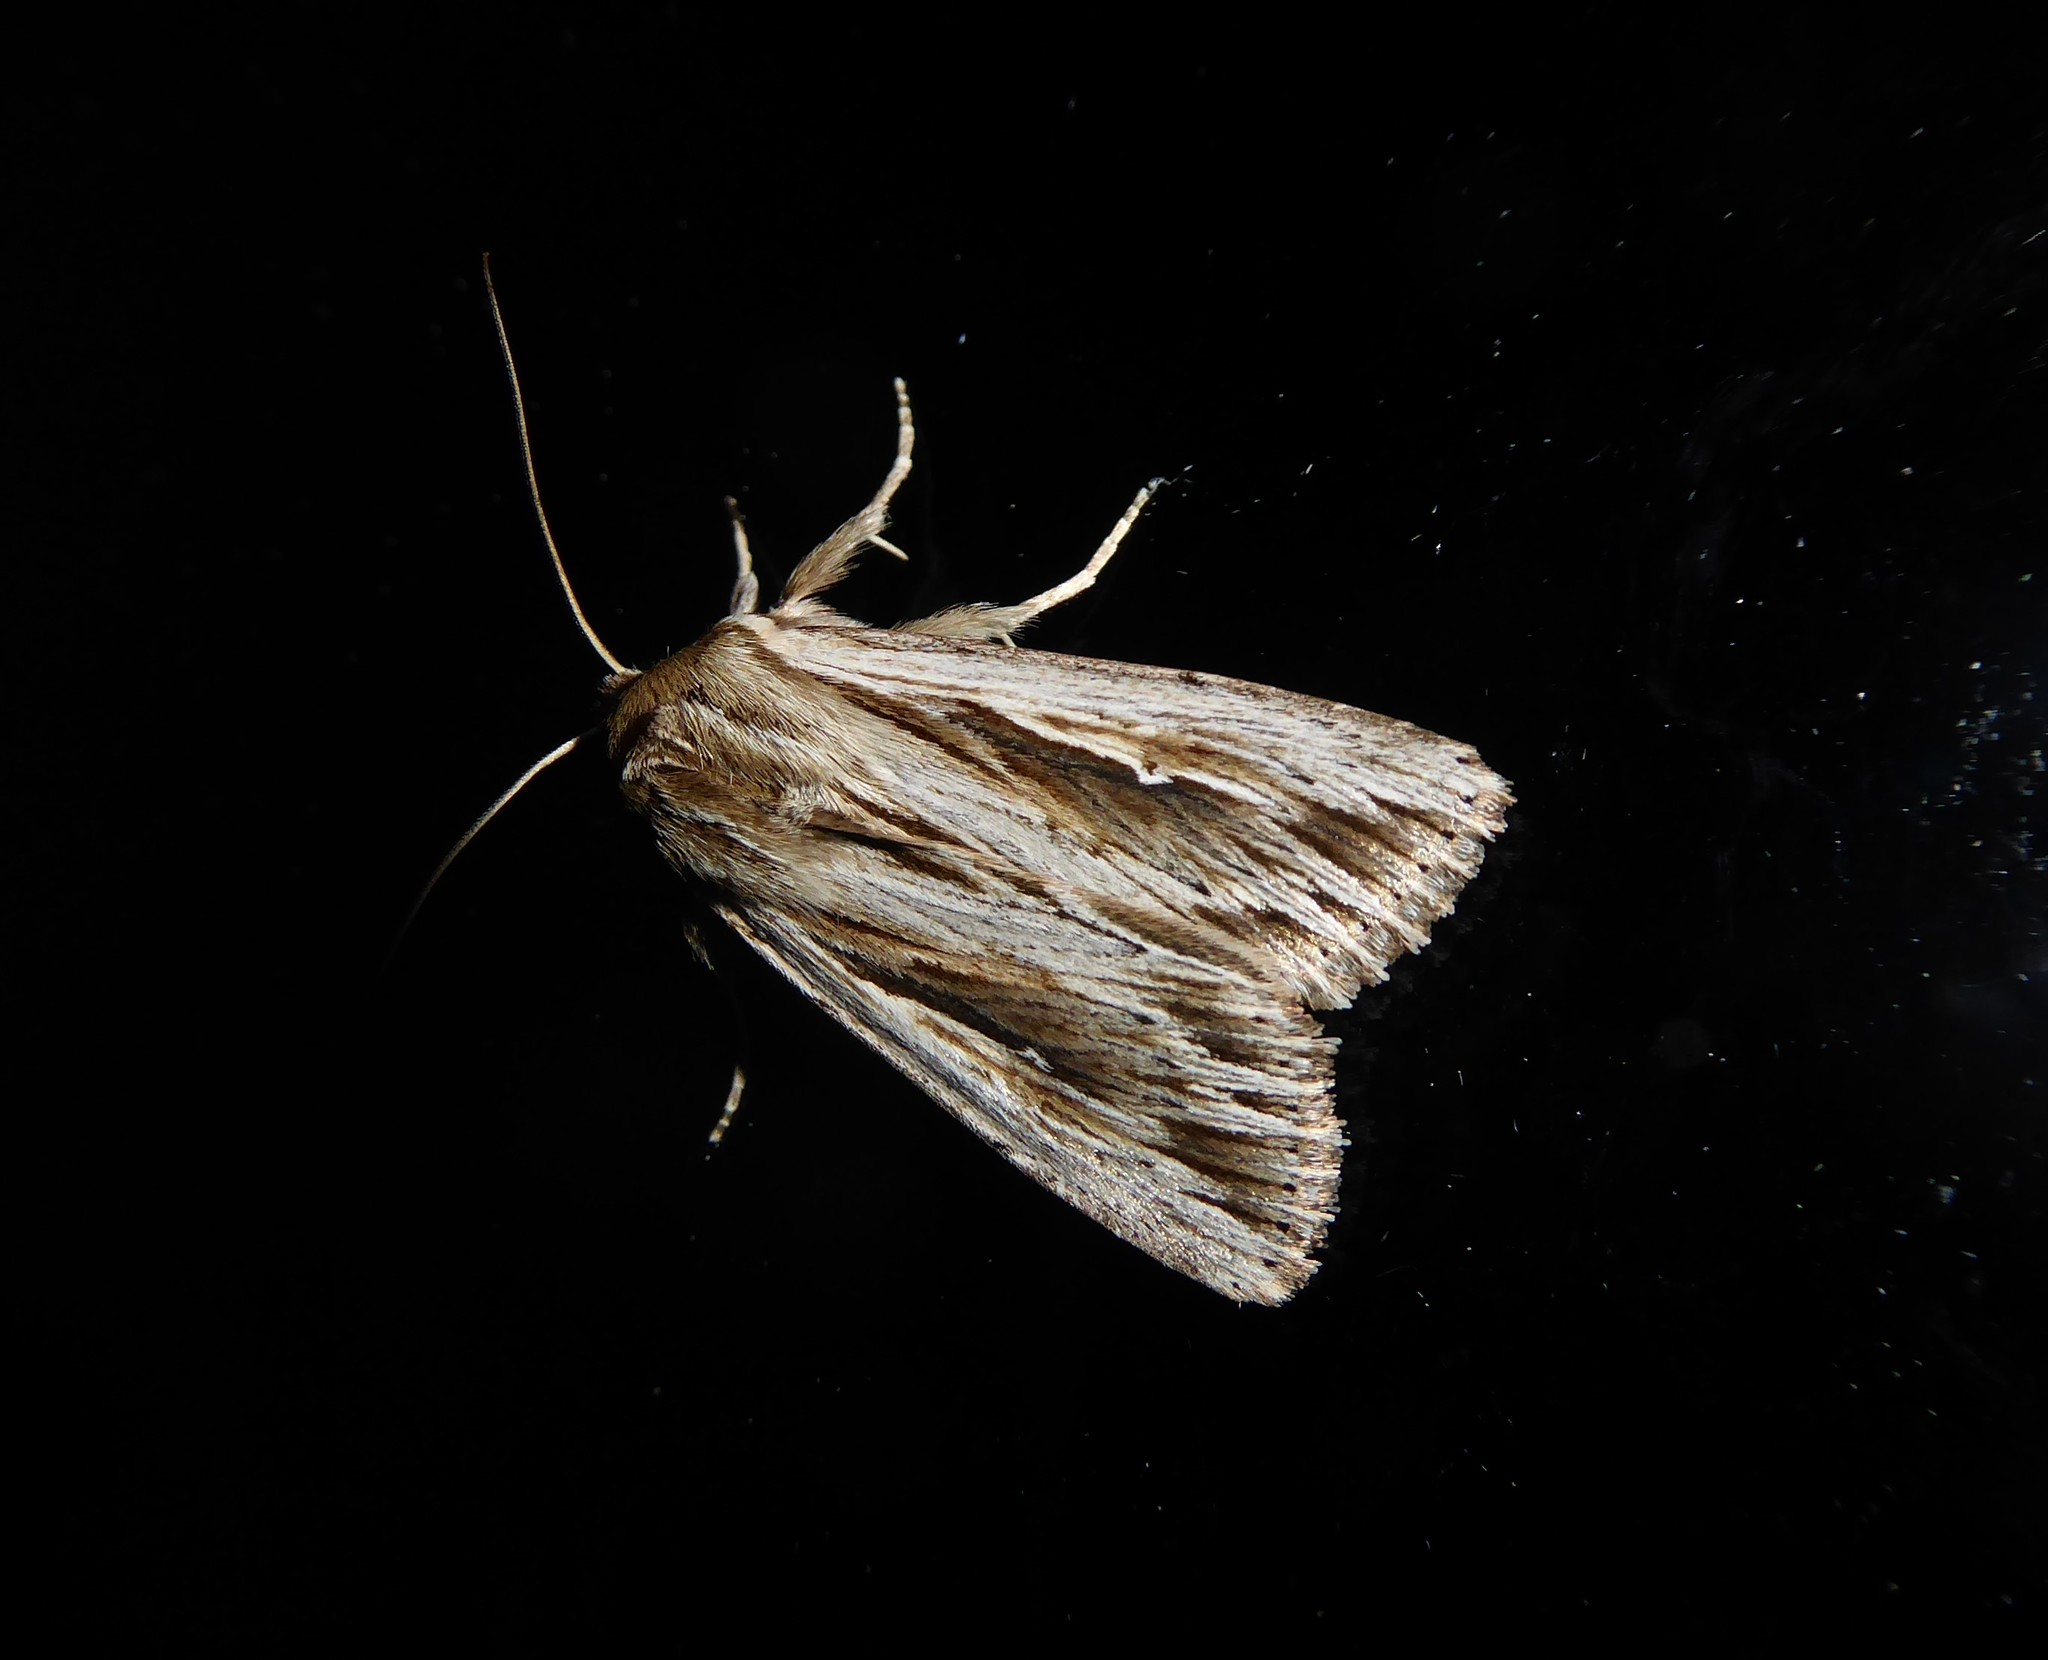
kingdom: Animalia
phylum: Arthropoda
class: Insecta
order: Lepidoptera
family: Noctuidae
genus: Persectania
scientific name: Persectania aversa
